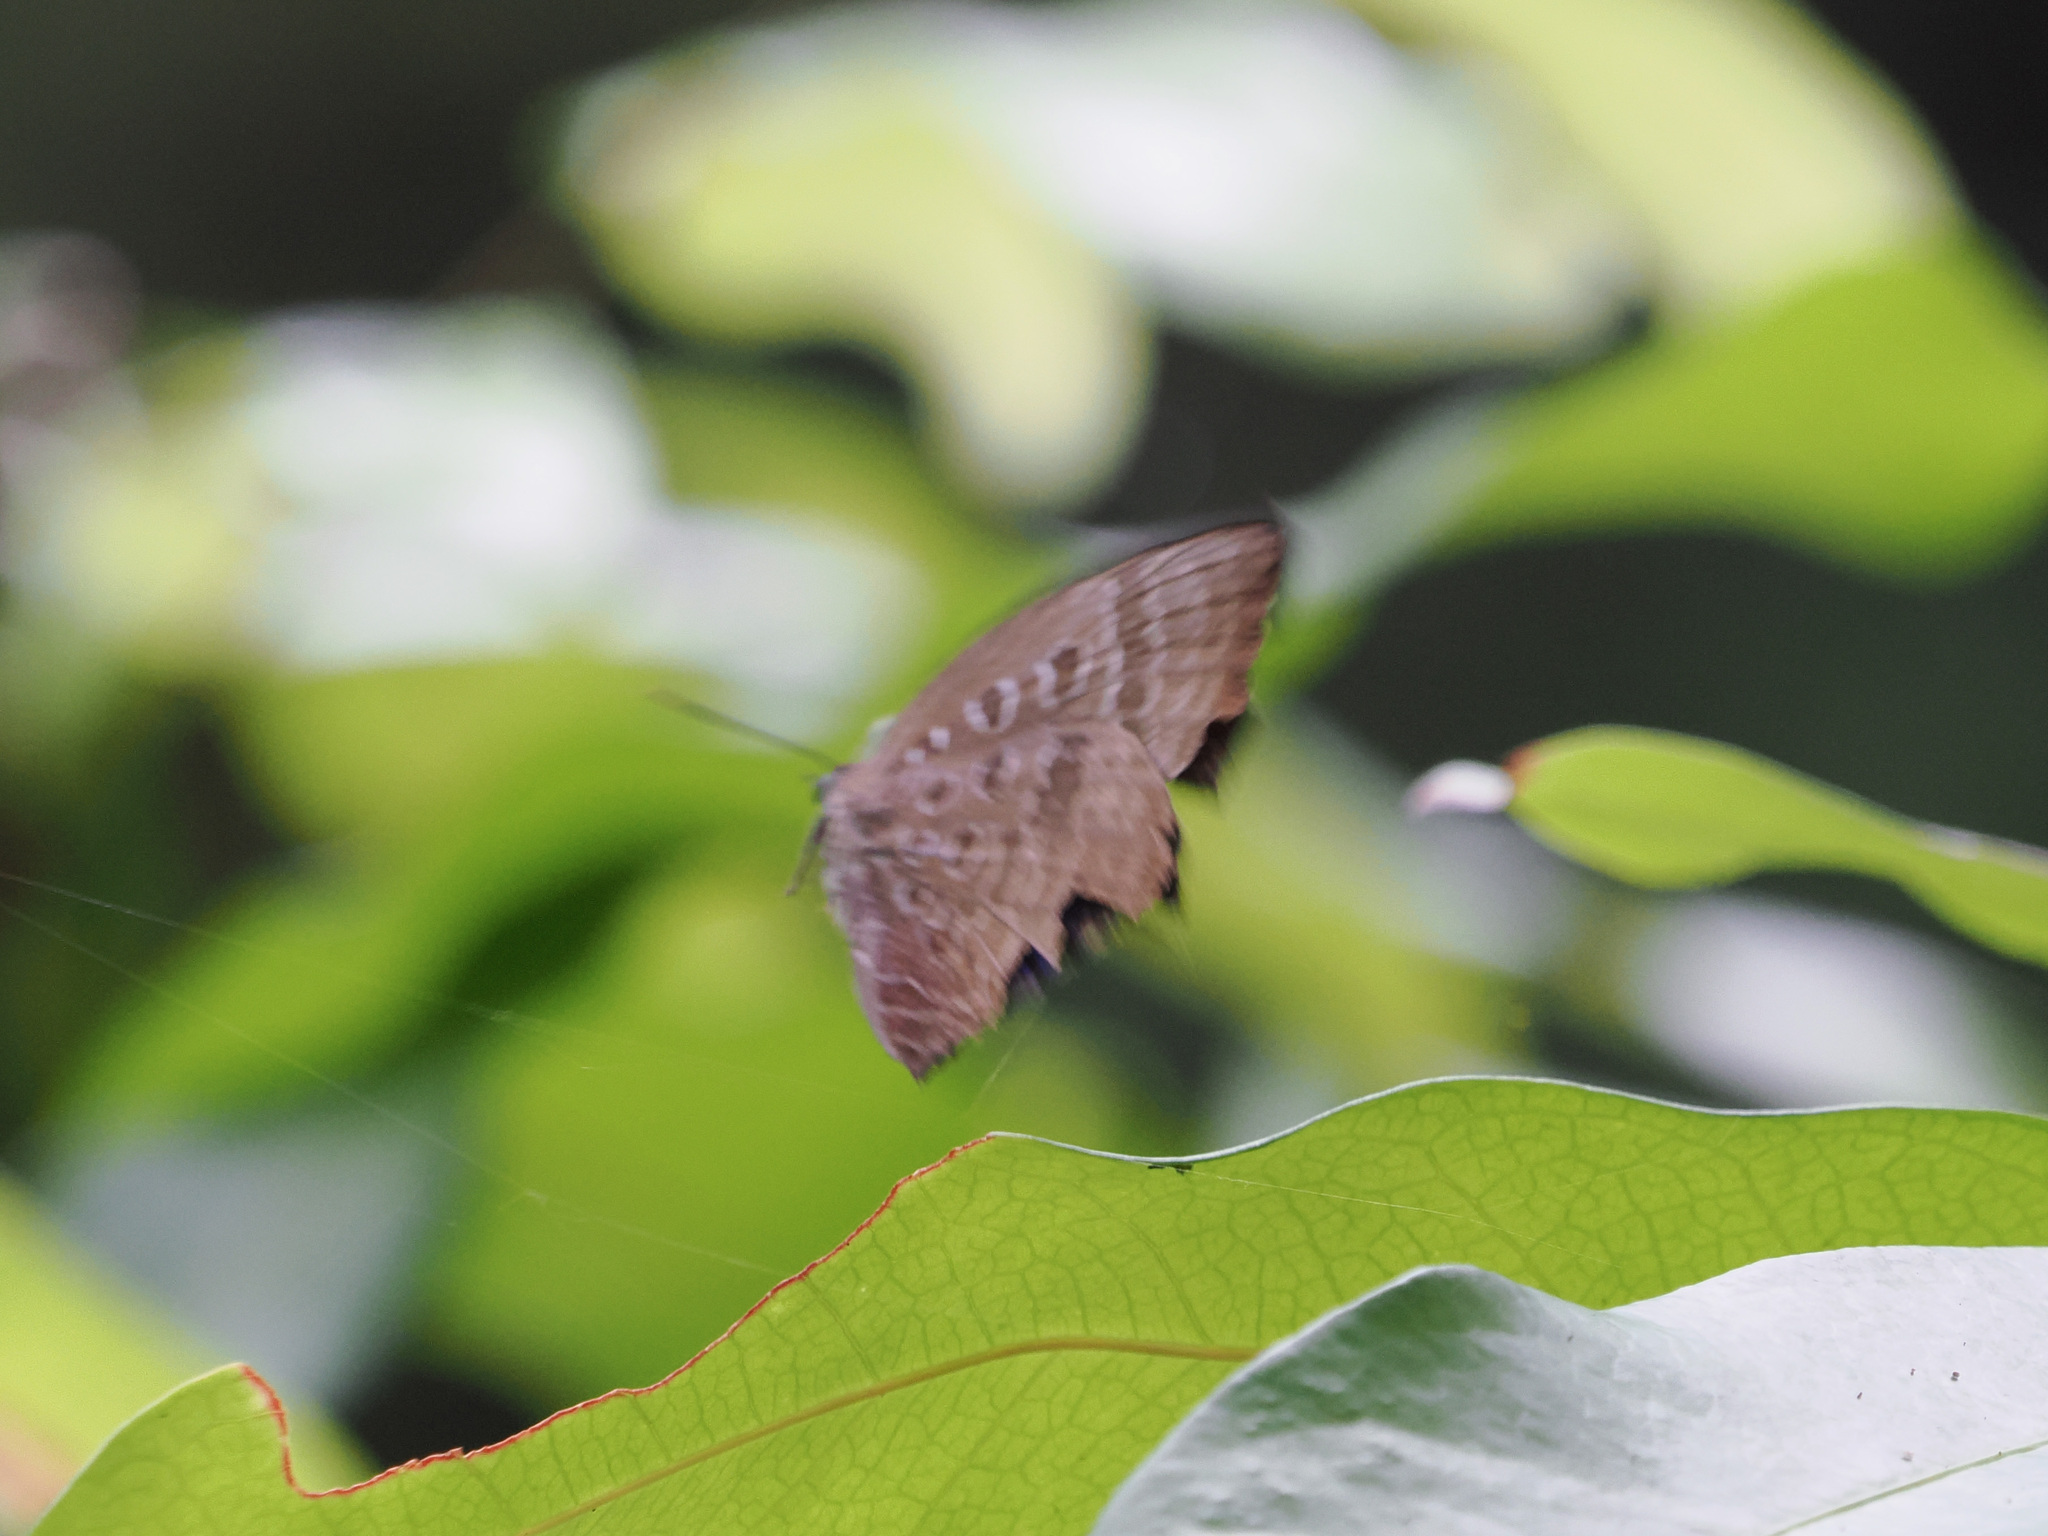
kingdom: Animalia
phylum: Arthropoda
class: Insecta
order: Lepidoptera
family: Lycaenidae
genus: Arhopala
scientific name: Arhopala araxes
